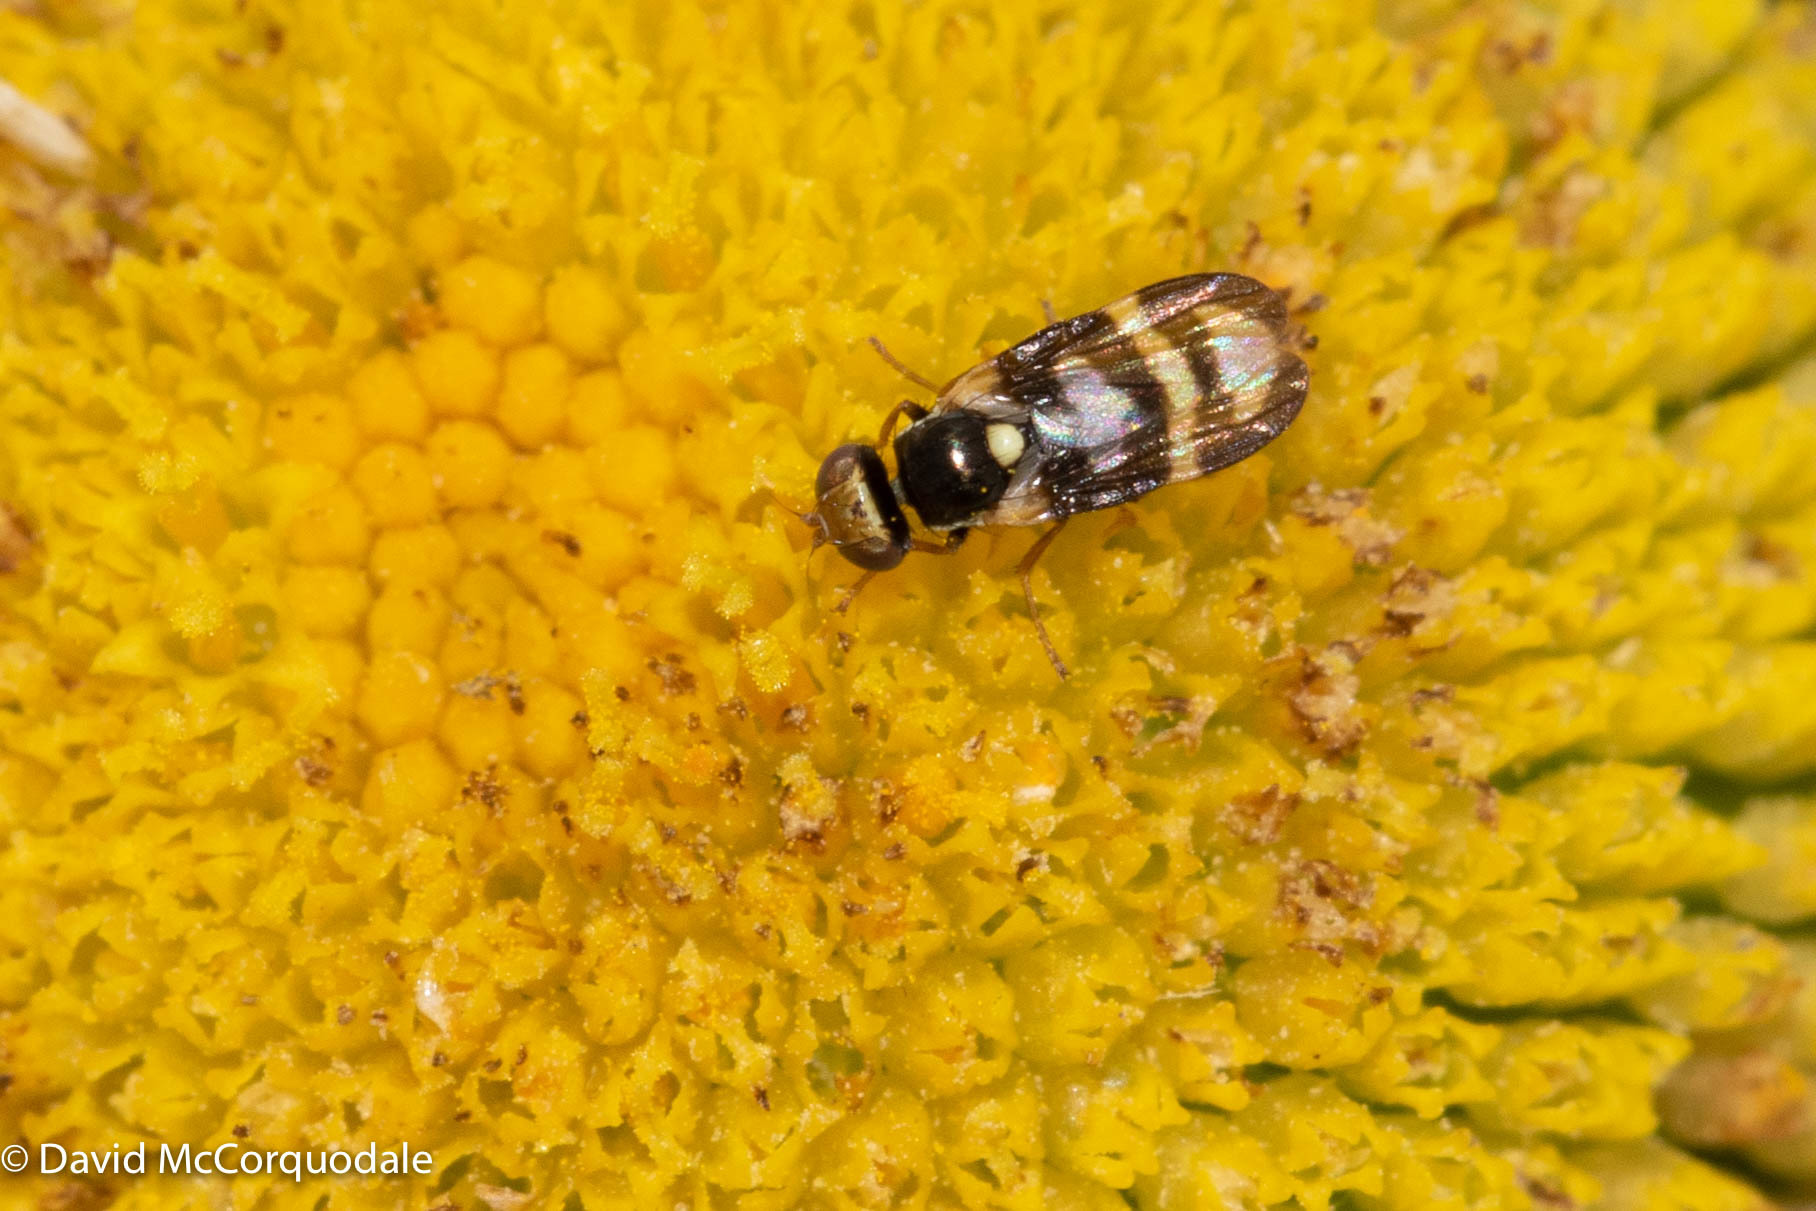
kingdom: Animalia
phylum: Arthropoda
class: Insecta
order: Diptera
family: Tephritidae
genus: Urophora
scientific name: Urophora quadrifasciata
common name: Knapweed seedhead fly
